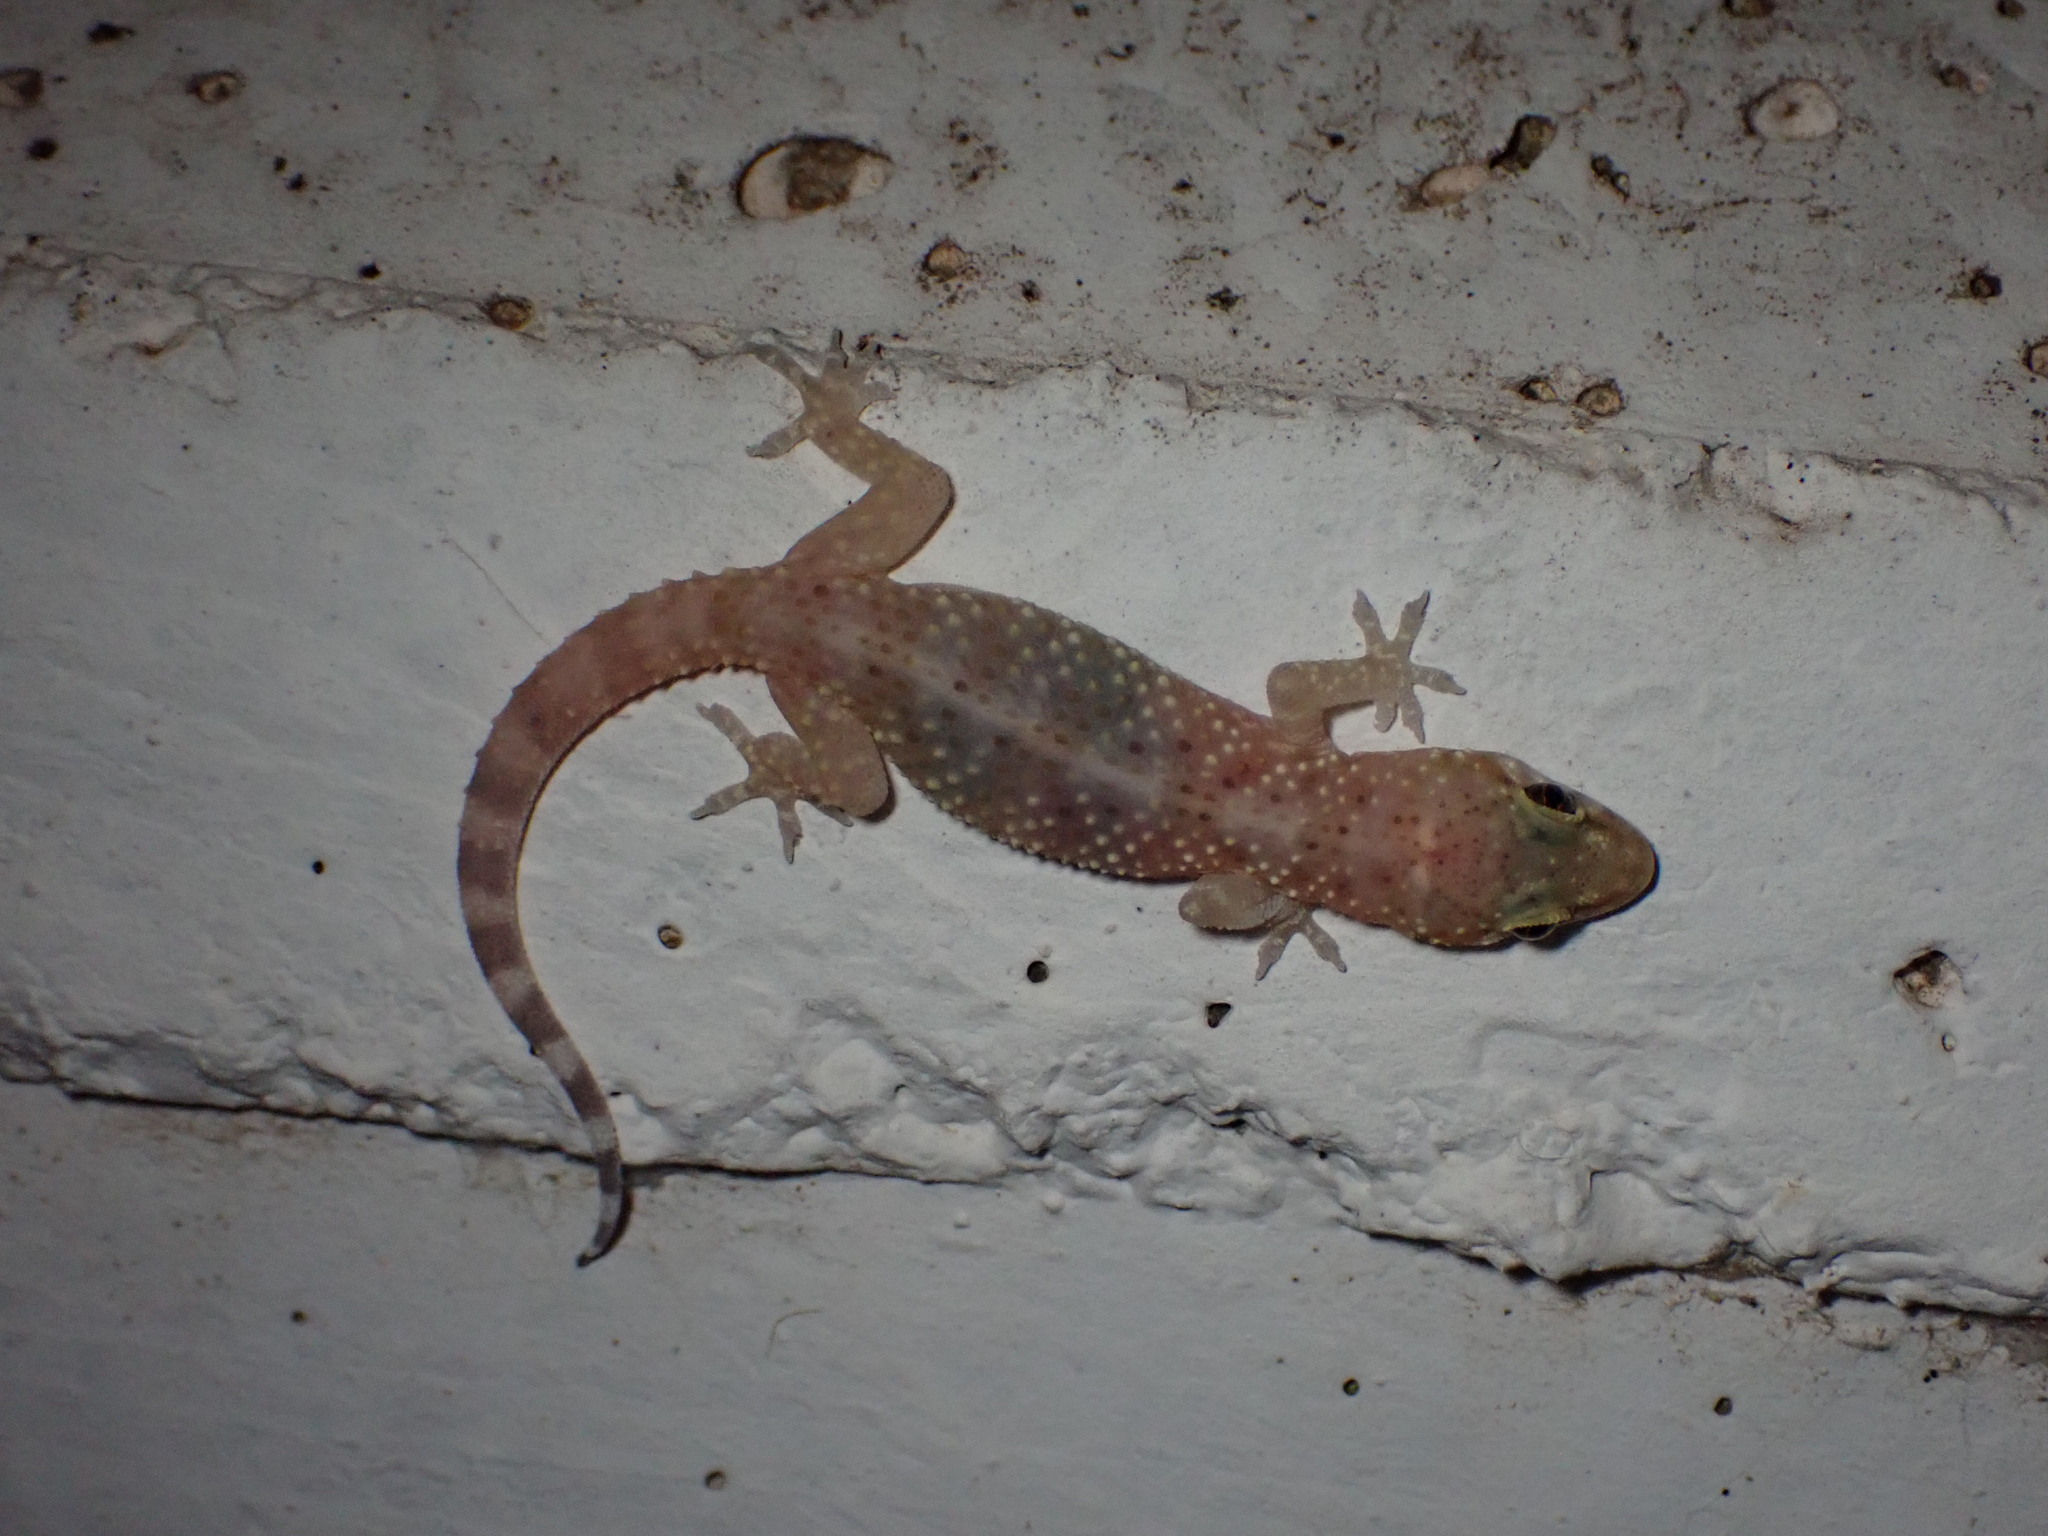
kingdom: Animalia
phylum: Chordata
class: Squamata
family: Gekkonidae
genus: Hemidactylus
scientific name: Hemidactylus turcicus
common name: Turkish gecko
